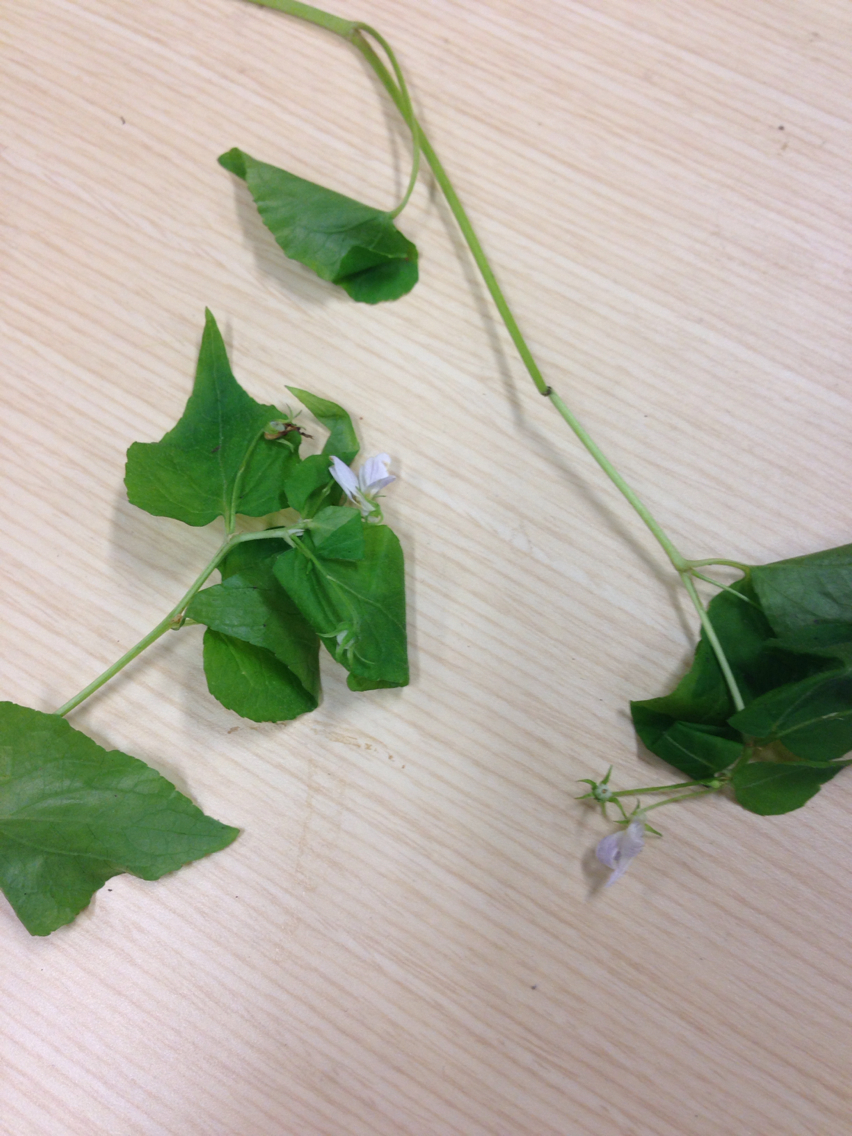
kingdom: Plantae
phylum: Tracheophyta
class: Magnoliopsida
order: Malpighiales
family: Violaceae
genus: Viola
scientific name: Viola canadensis
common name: Canada violet
